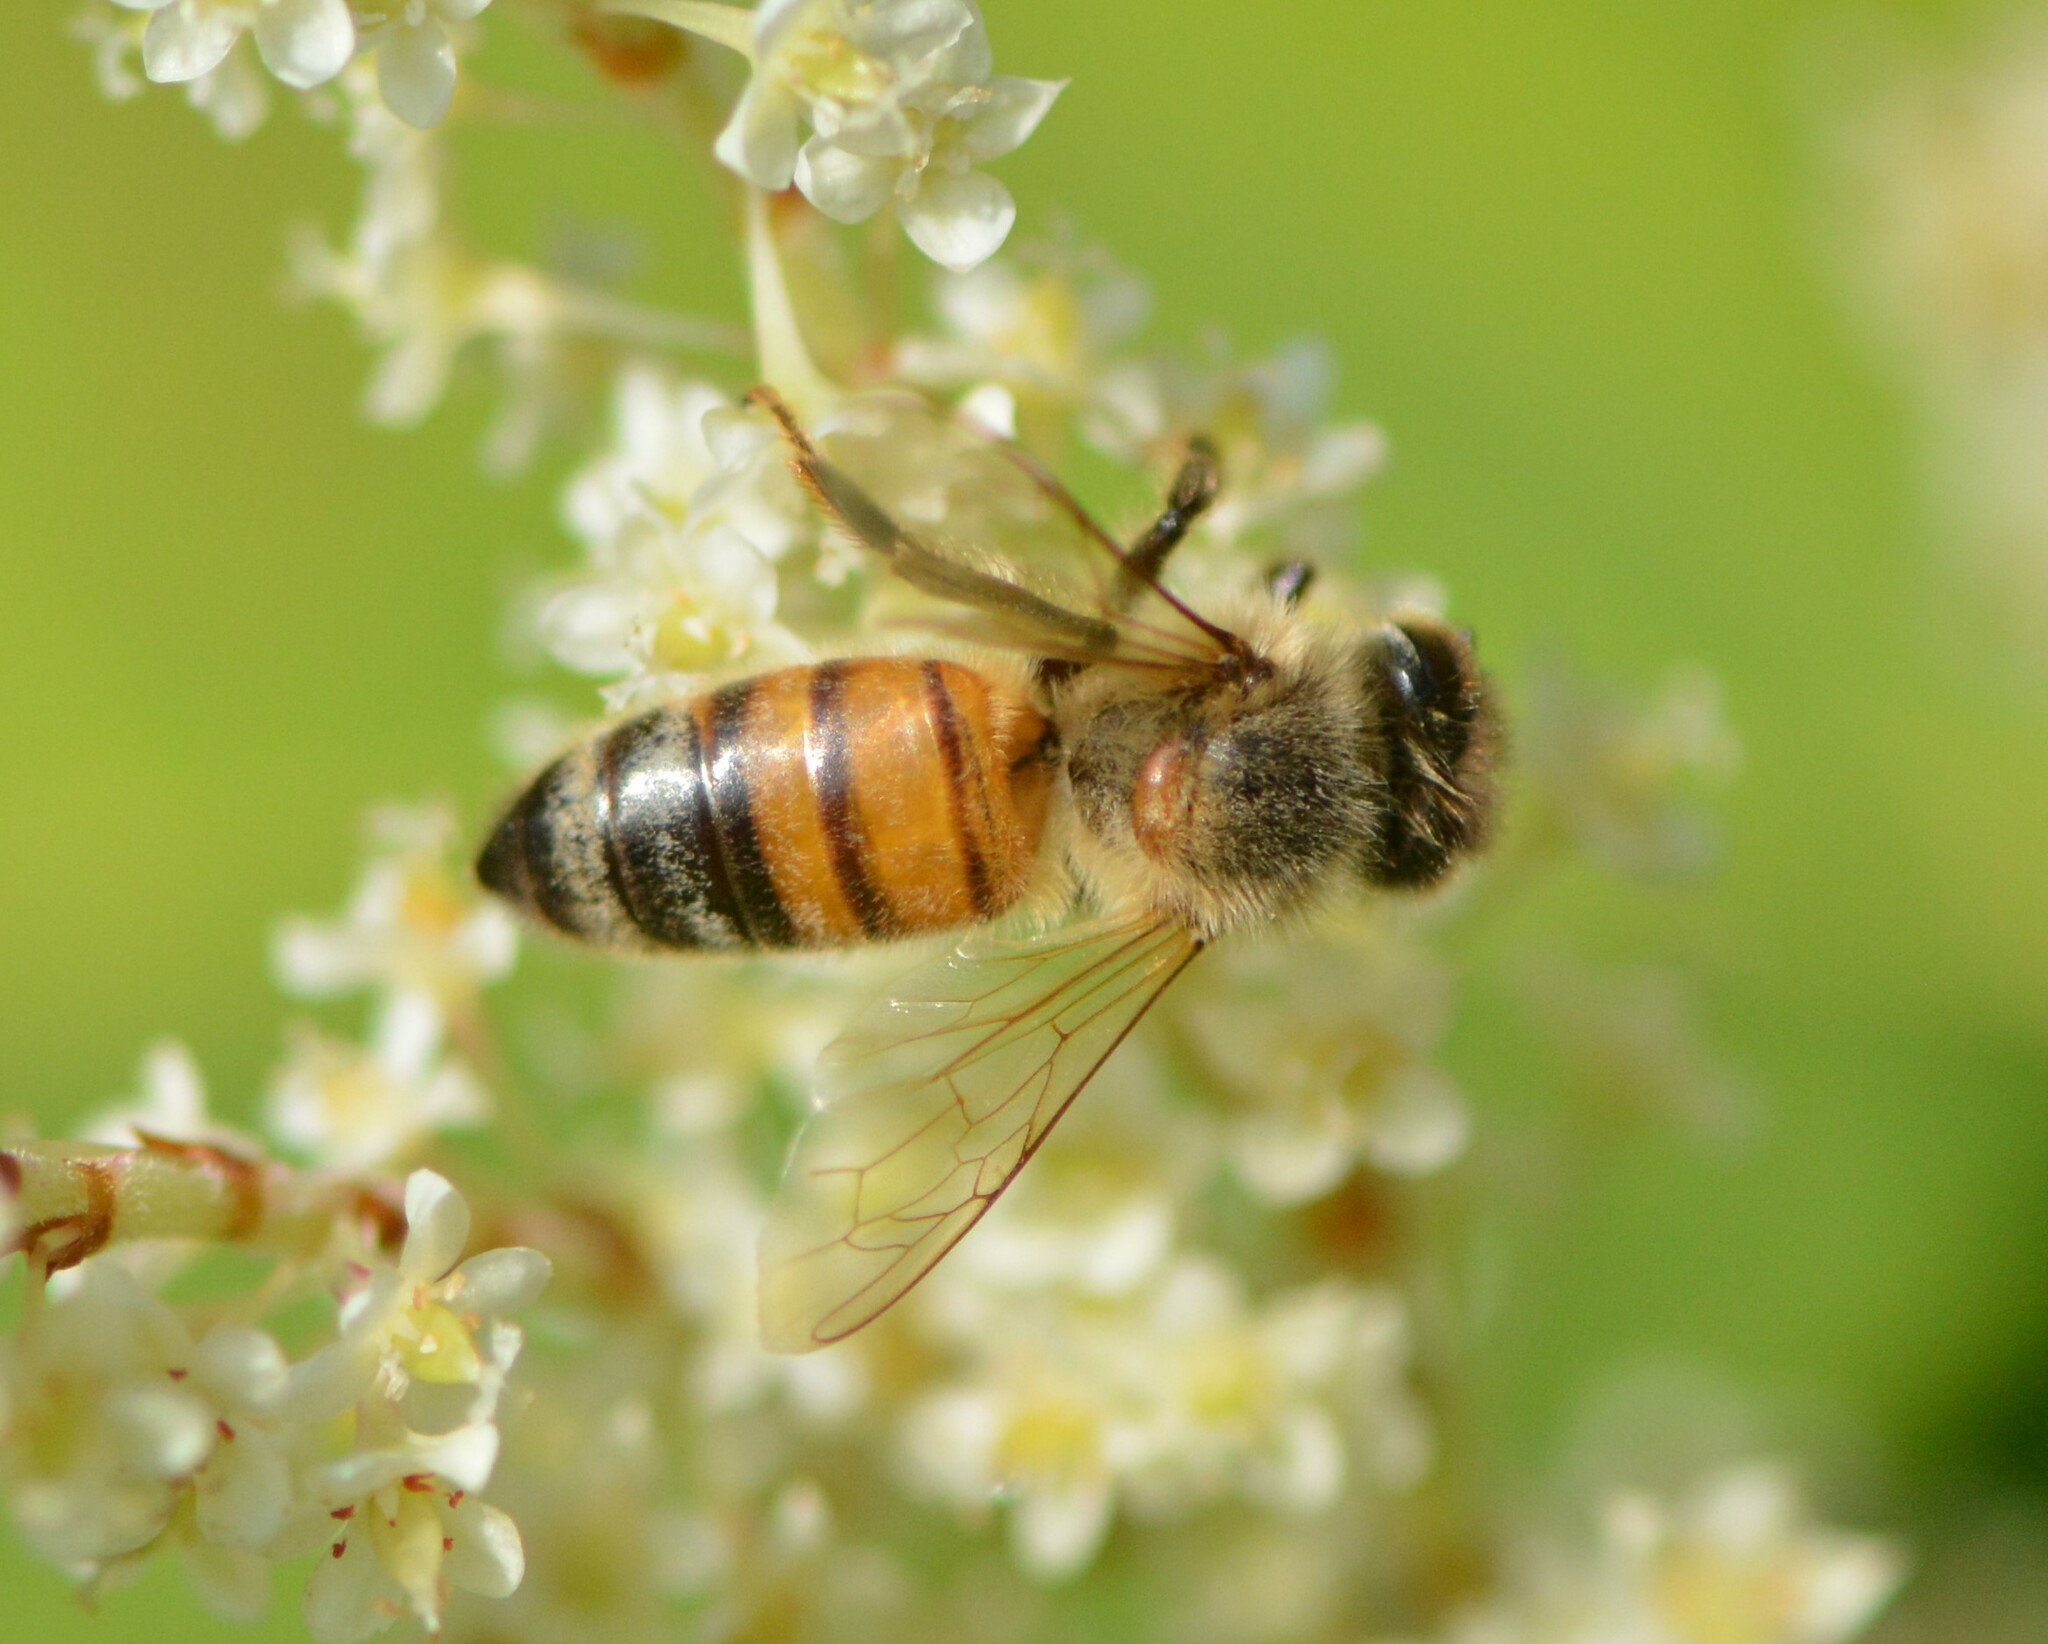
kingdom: Animalia
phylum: Arthropoda
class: Insecta
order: Hymenoptera
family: Apidae
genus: Apis
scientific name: Apis mellifera
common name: Honey bee
